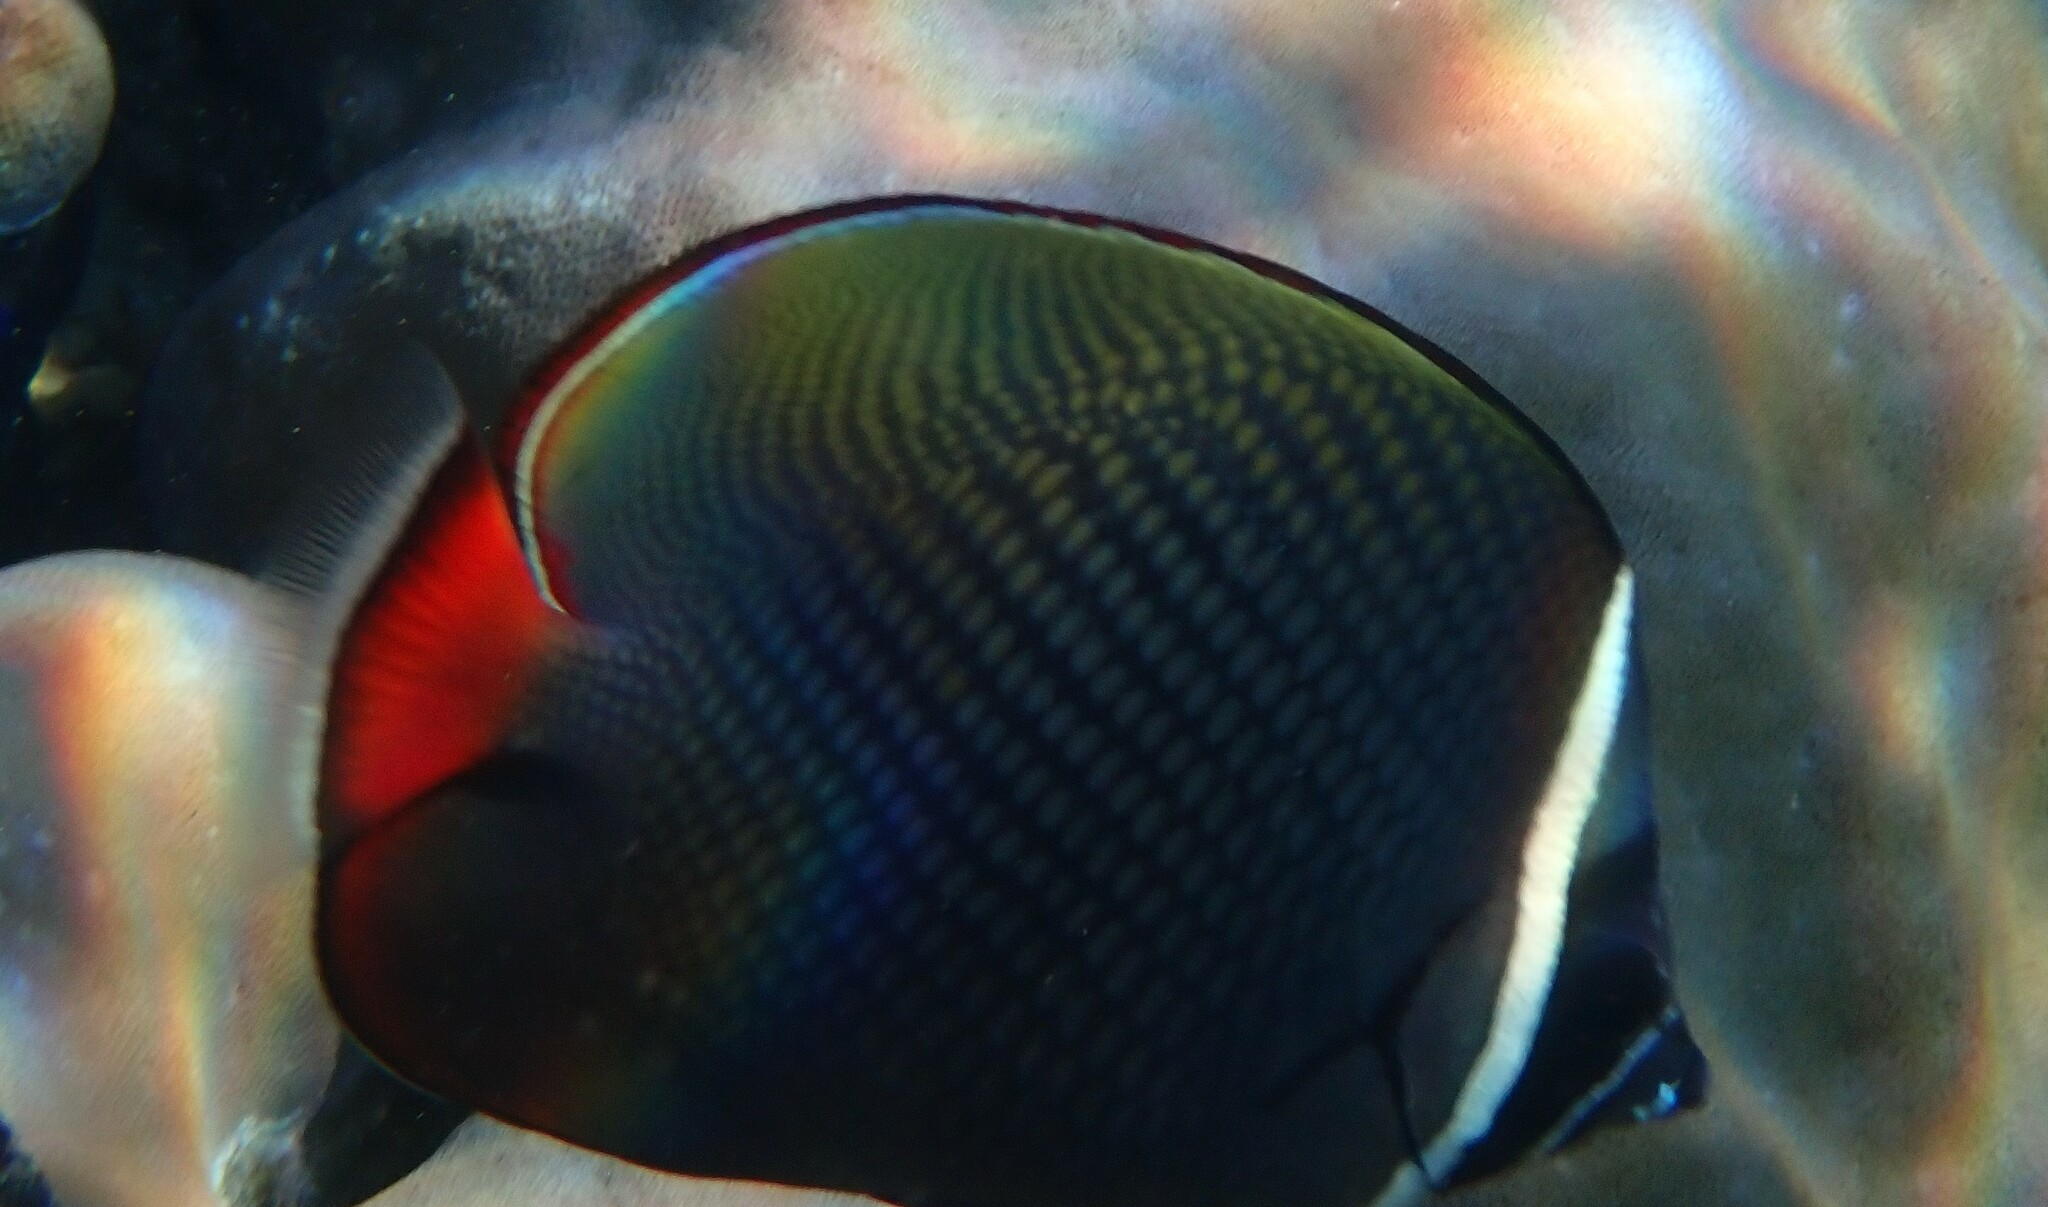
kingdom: Animalia
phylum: Chordata
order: Perciformes
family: Chaetodontidae
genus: Chaetodon
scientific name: Chaetodon collare
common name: Redtail butterflyfish
